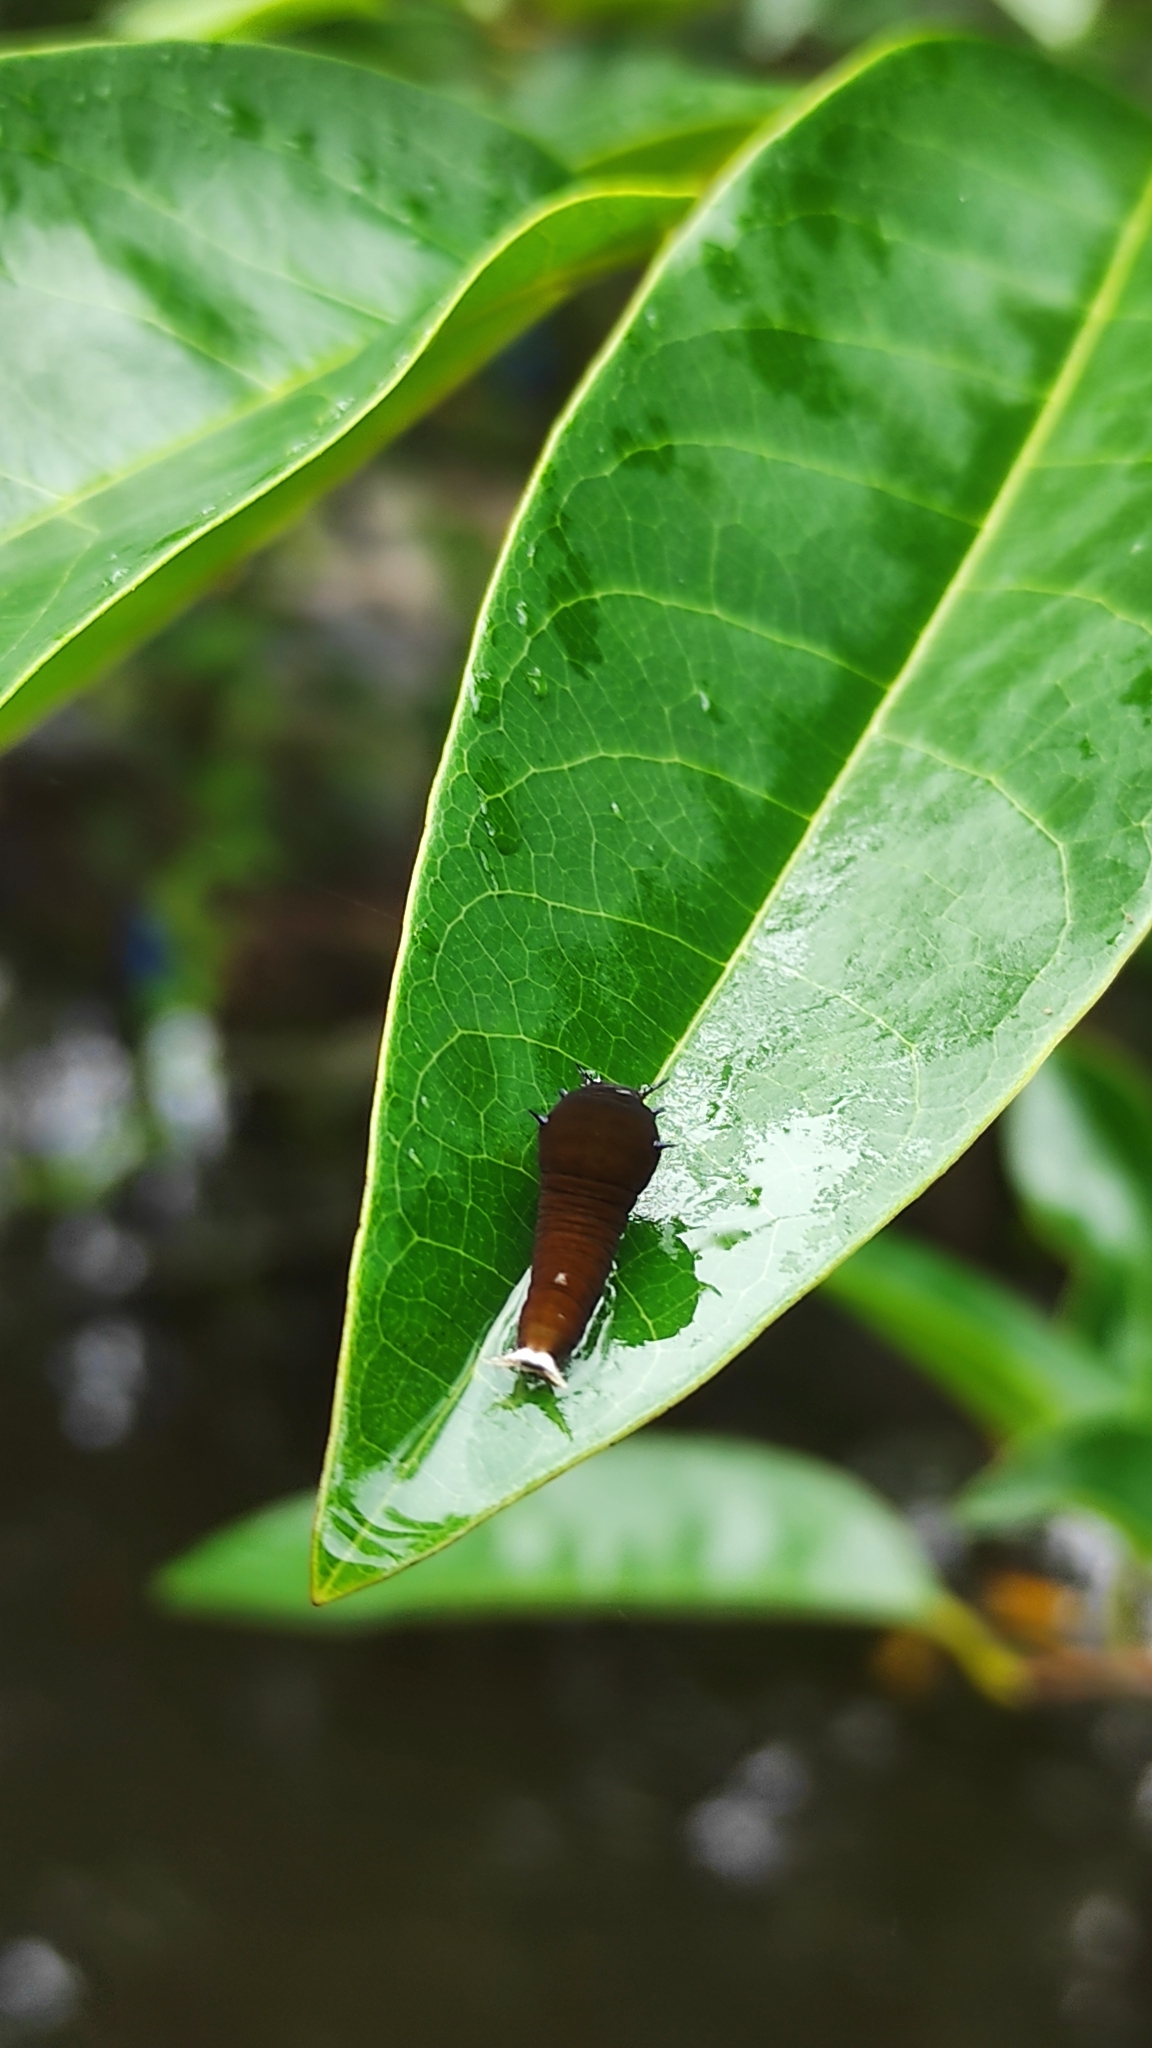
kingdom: Animalia
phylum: Arthropoda
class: Insecta
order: Lepidoptera
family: Papilionidae
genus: Graphium
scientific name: Graphium doson
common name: Common jay
